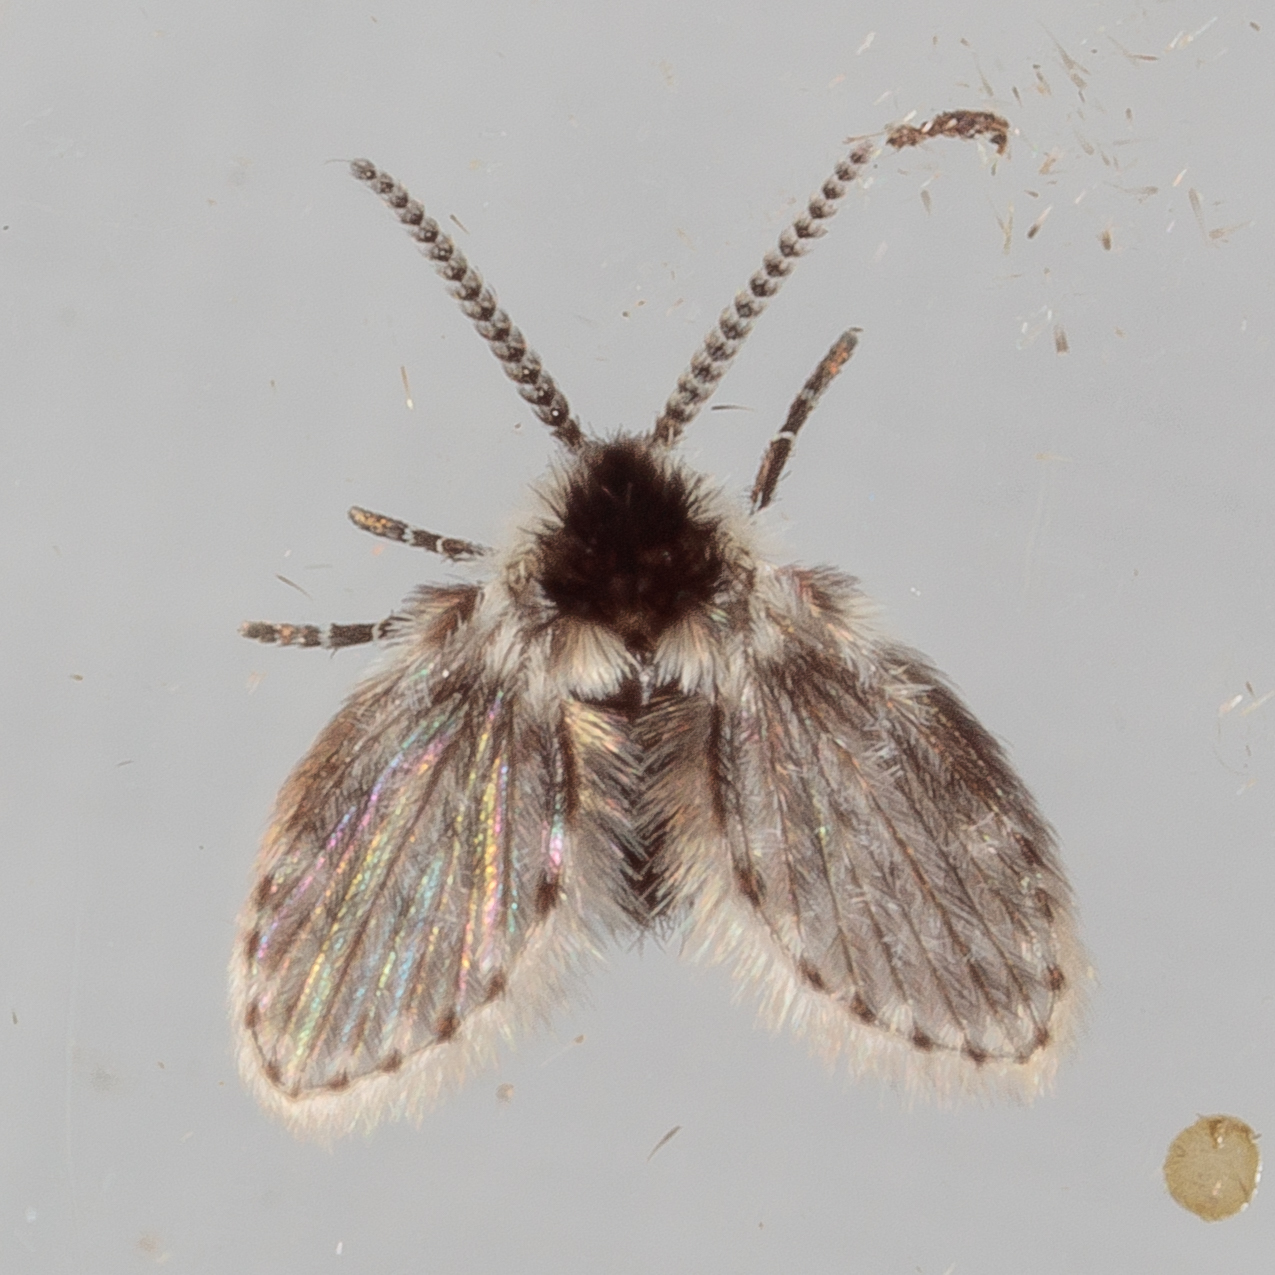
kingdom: Animalia
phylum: Arthropoda
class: Insecta
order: Diptera
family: Psychodidae
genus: Lepiseodina
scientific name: Lepiseodina
